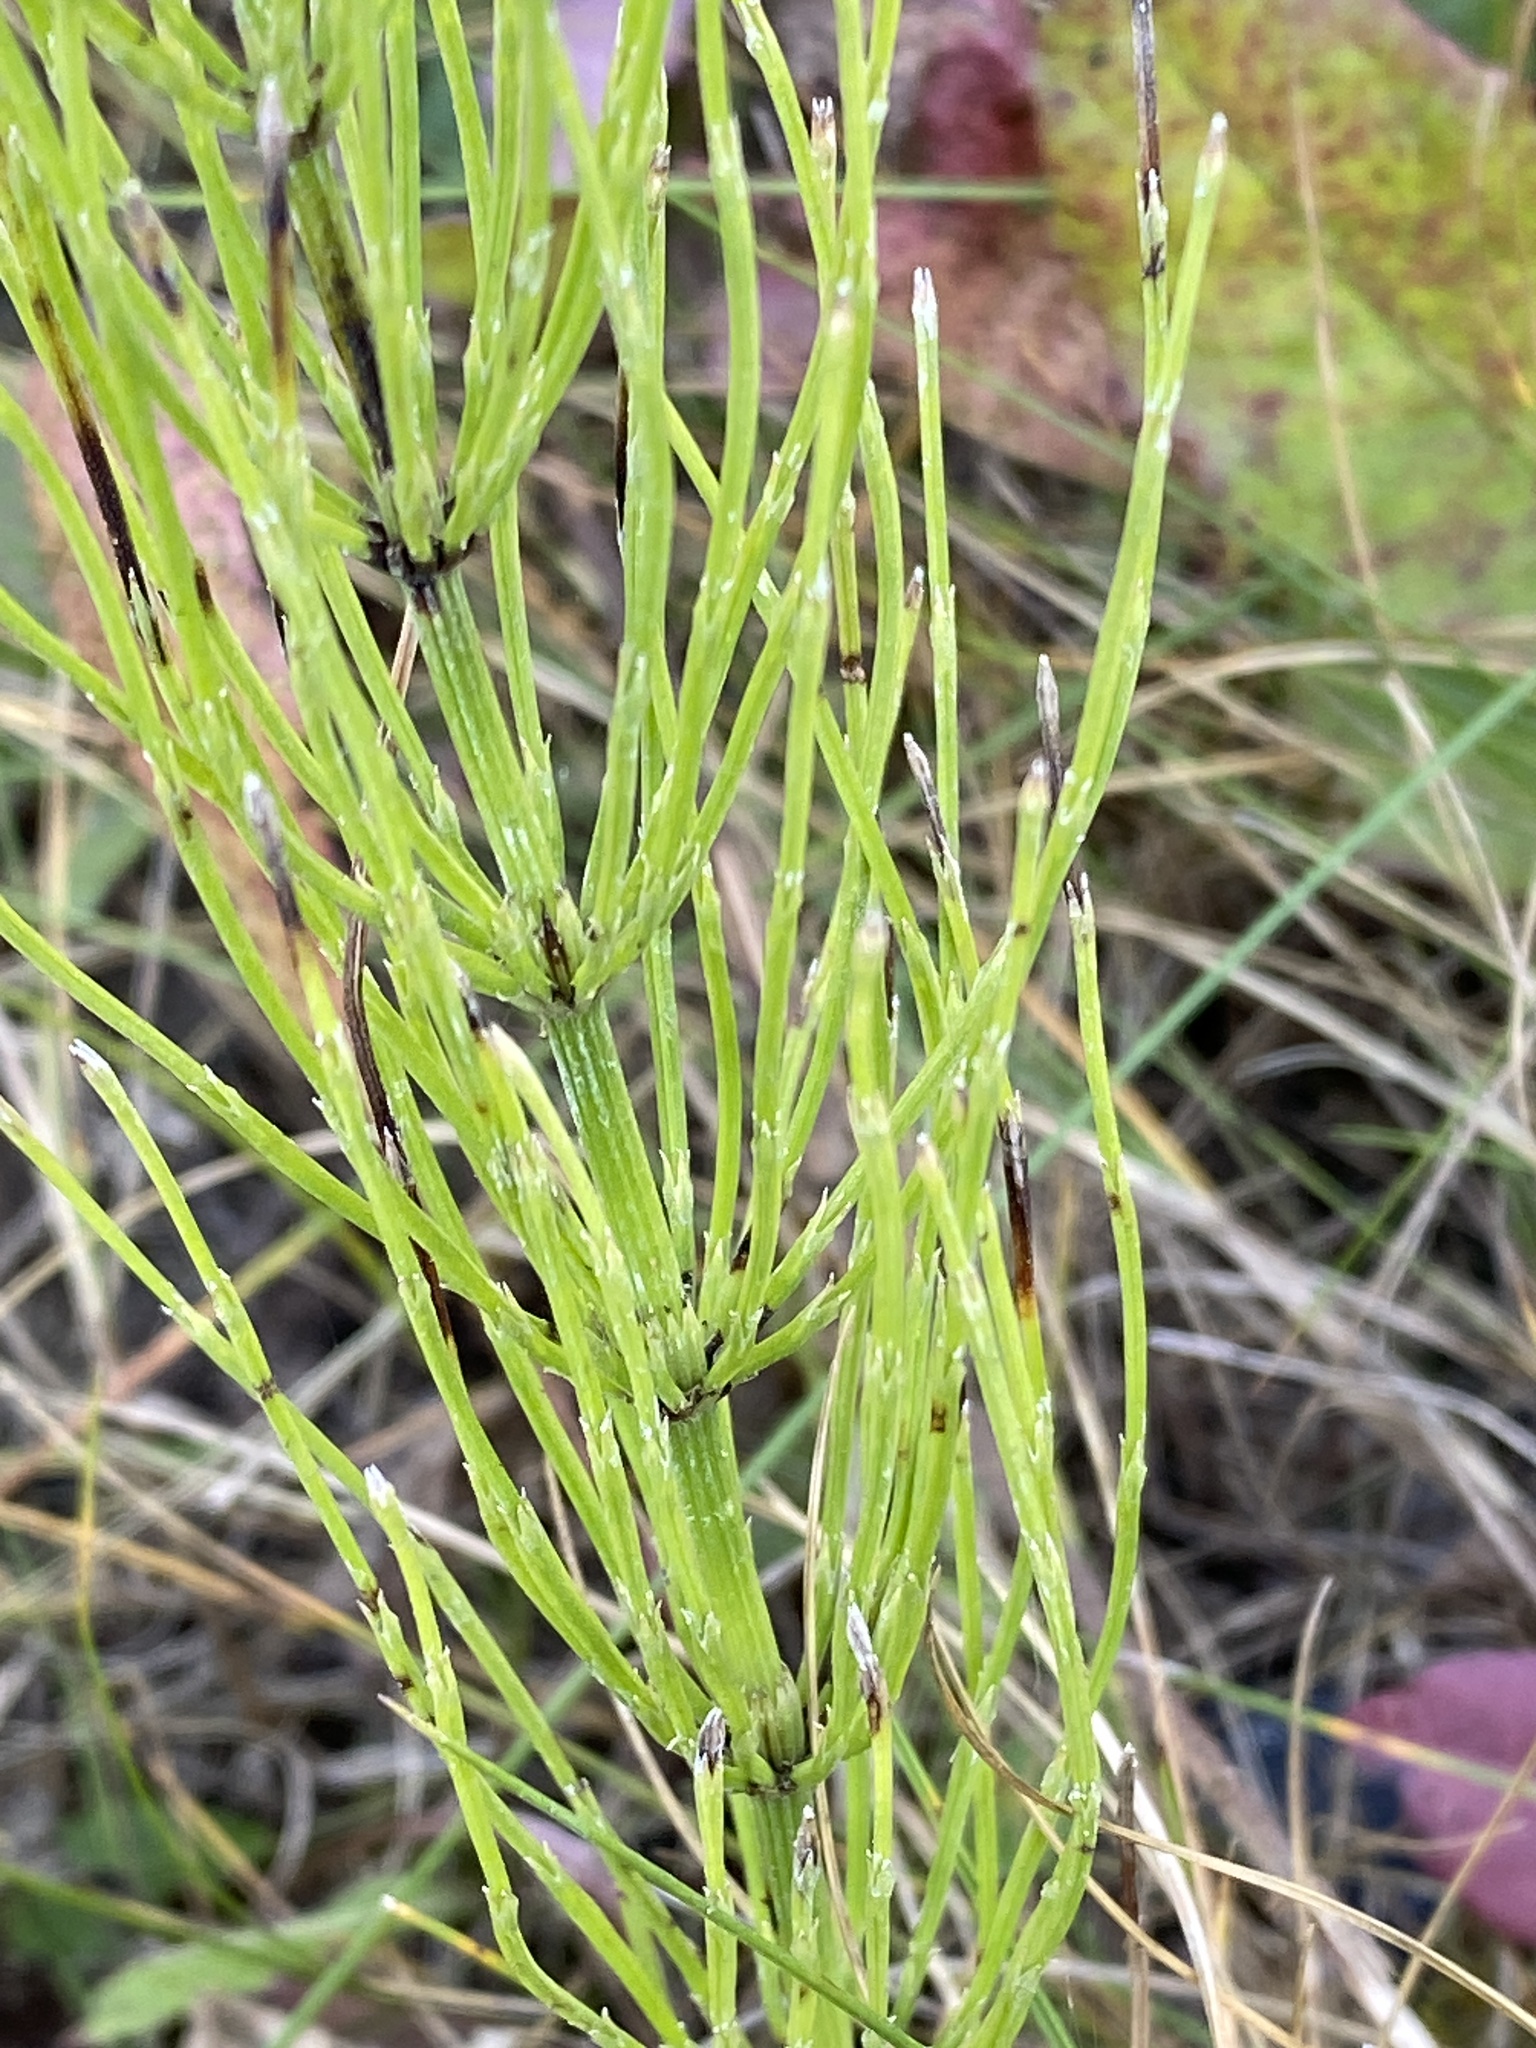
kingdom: Plantae
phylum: Tracheophyta
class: Polypodiopsida
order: Equisetales
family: Equisetaceae
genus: Equisetum
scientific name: Equisetum arvense
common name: Field horsetail
